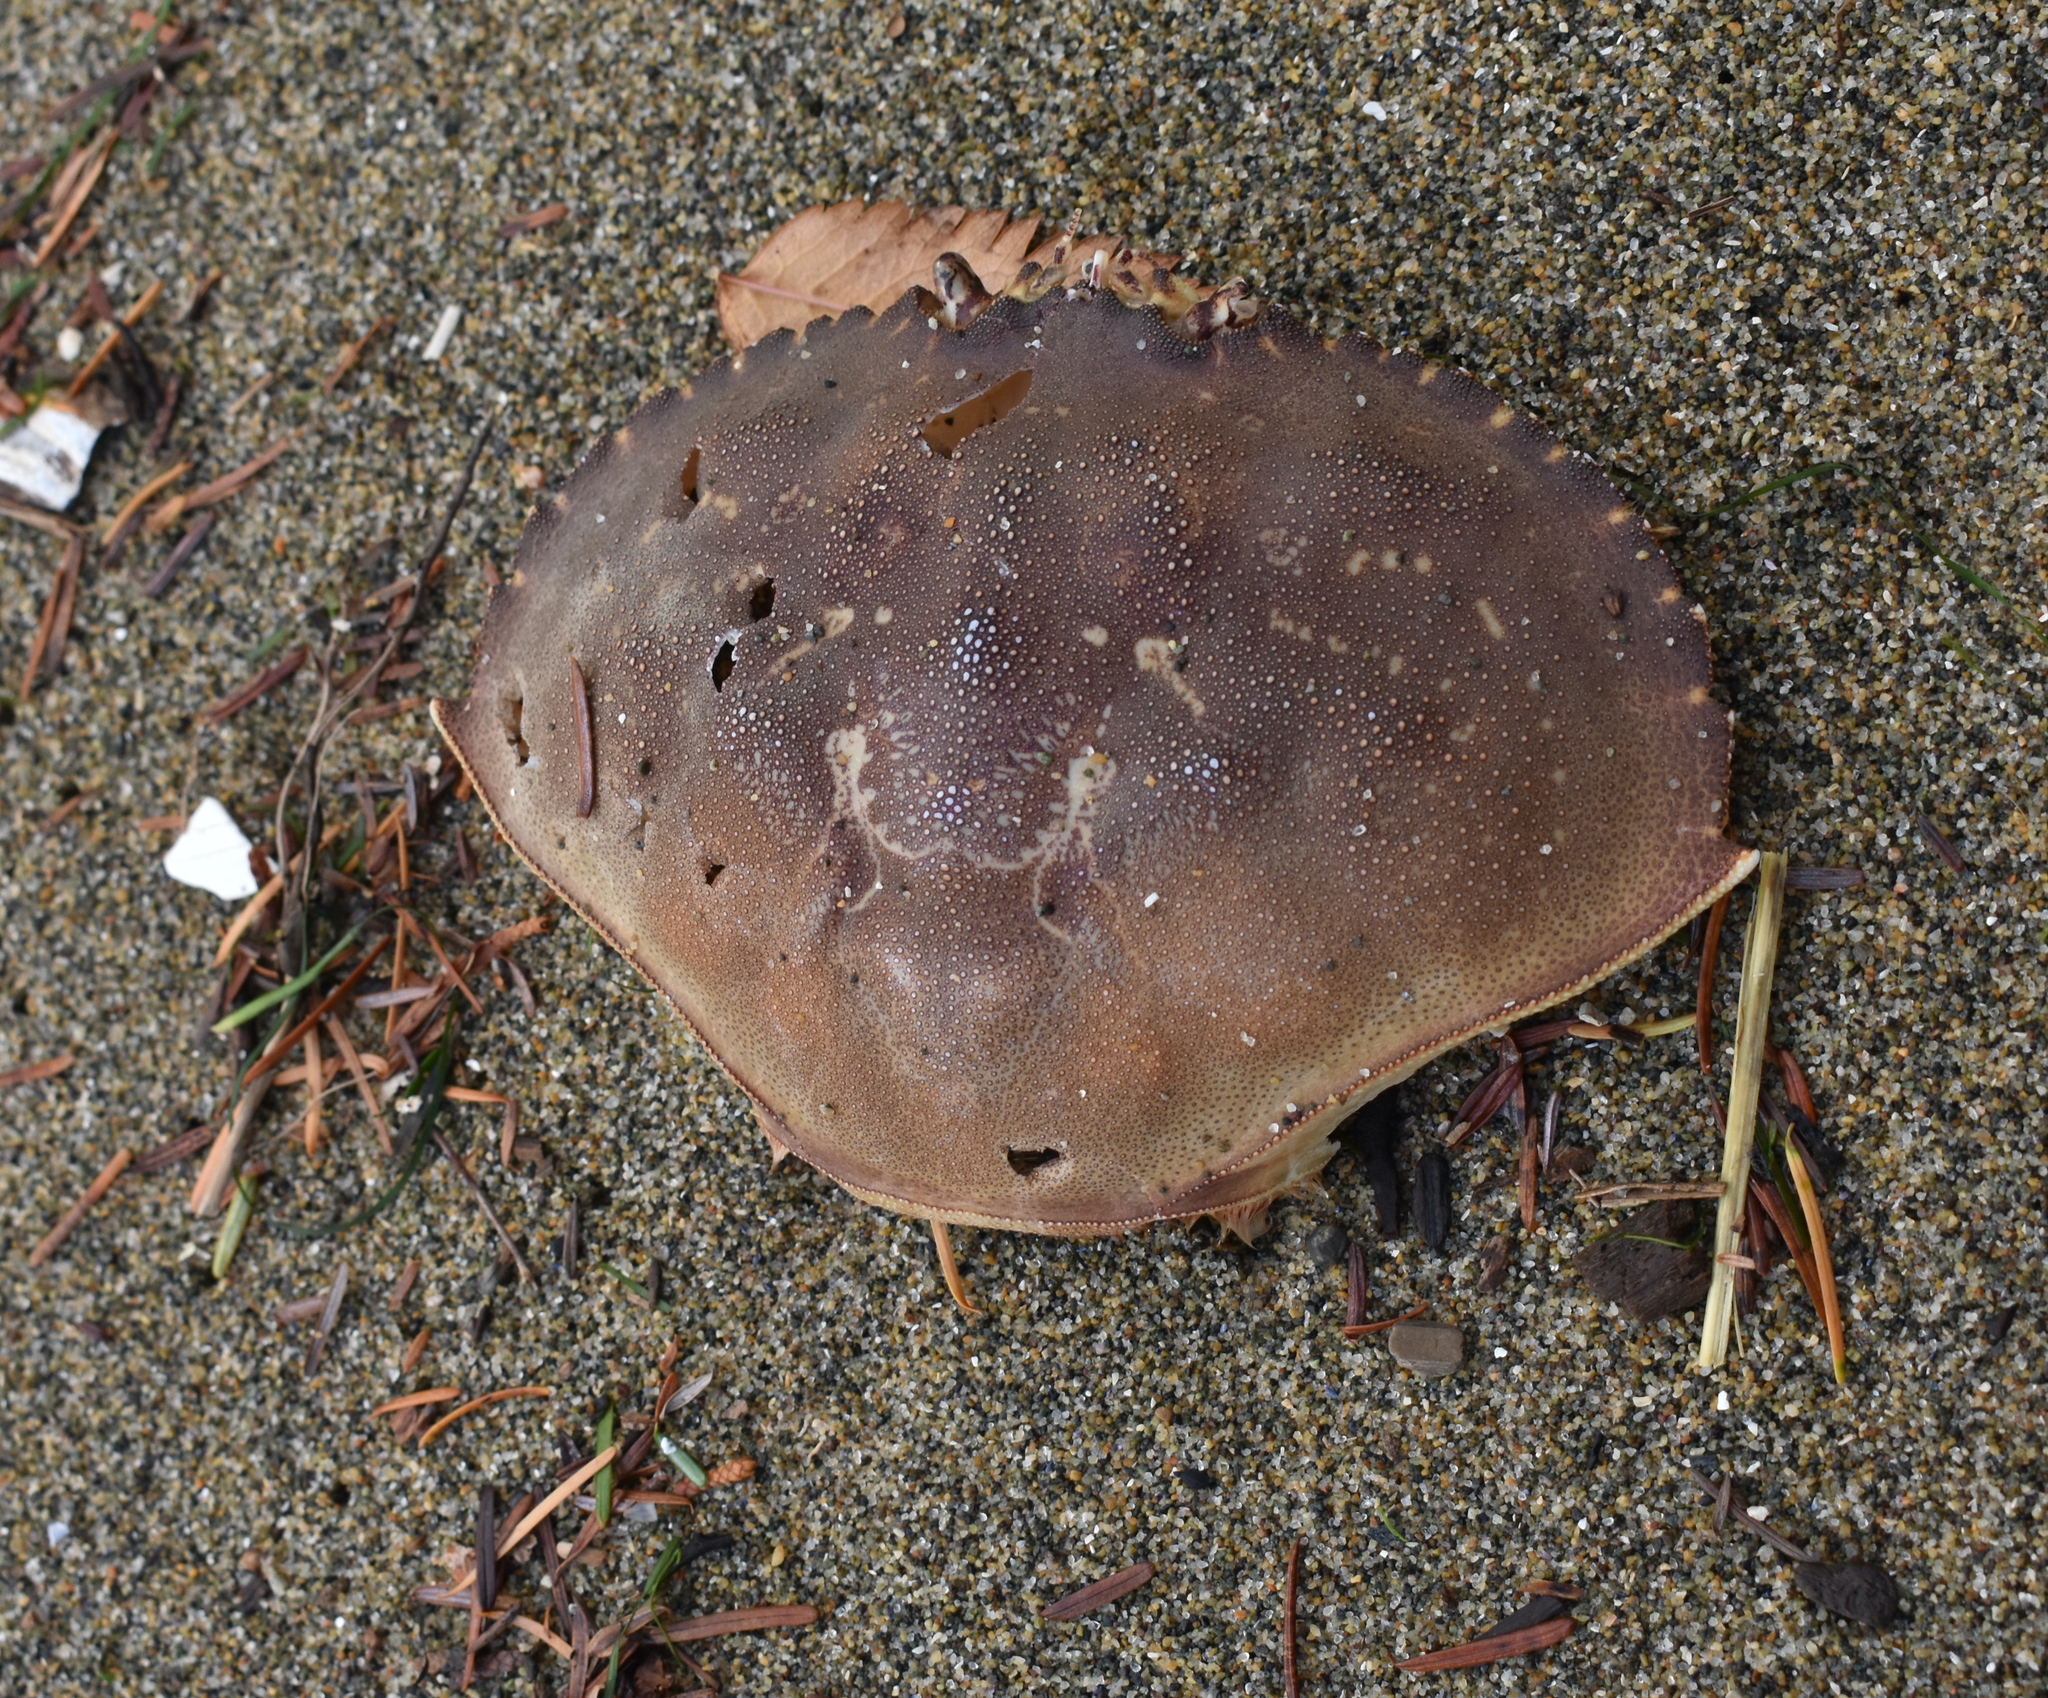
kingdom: Animalia
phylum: Arthropoda
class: Malacostraca
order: Decapoda
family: Cancridae
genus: Metacarcinus
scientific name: Metacarcinus magister
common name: Californian crab
